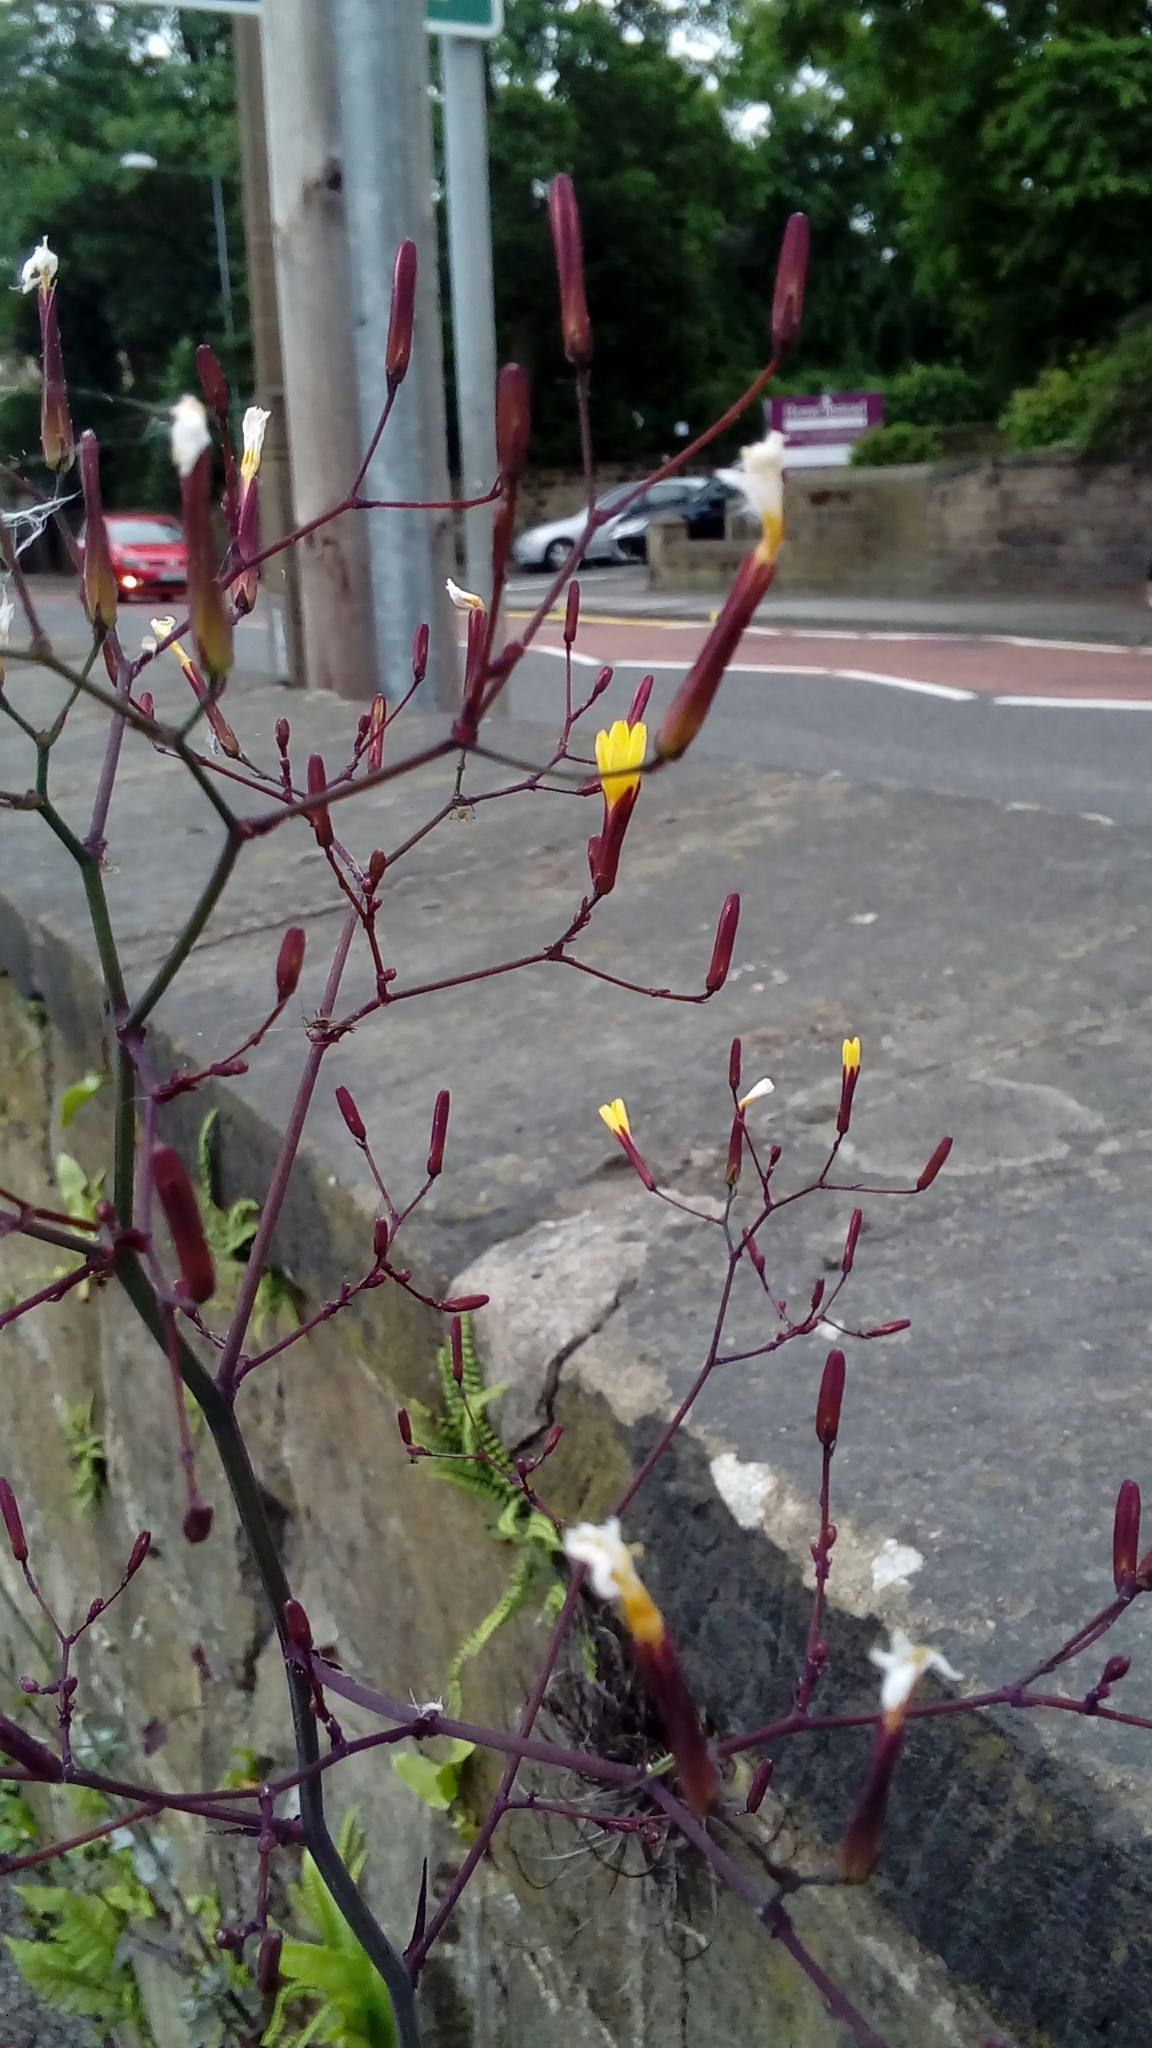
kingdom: Plantae
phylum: Tracheophyta
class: Magnoliopsida
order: Asterales
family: Asteraceae
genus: Mycelis
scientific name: Mycelis muralis
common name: Wall lettuce
